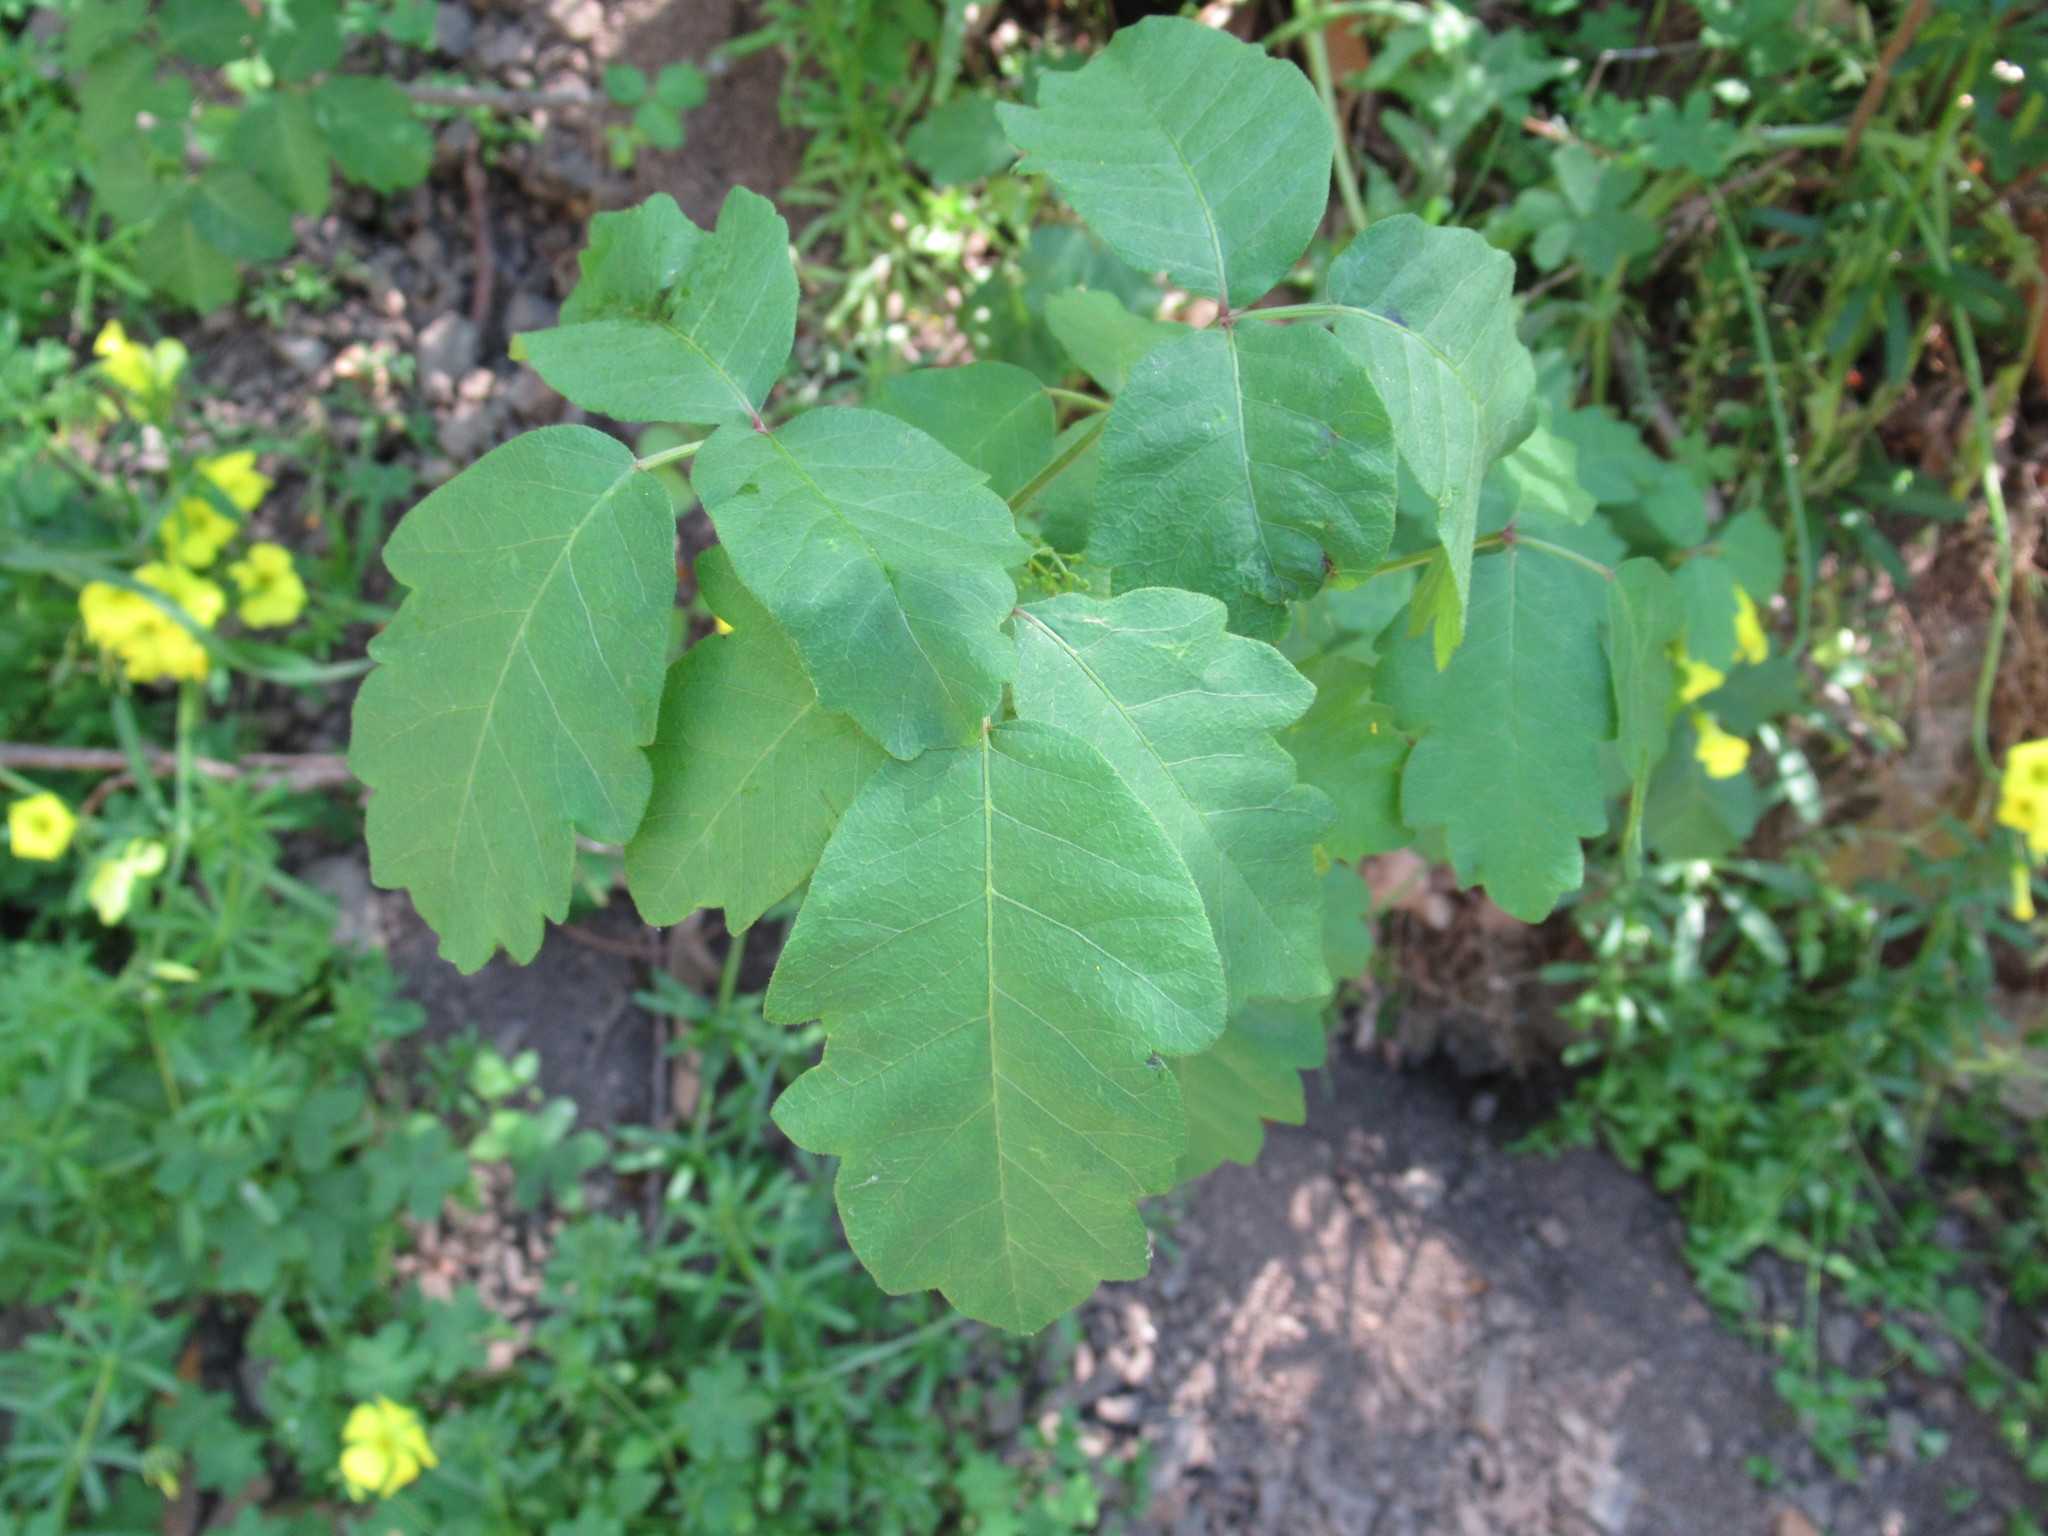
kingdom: Plantae
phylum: Tracheophyta
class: Magnoliopsida
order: Sapindales
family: Anacardiaceae
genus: Toxicodendron
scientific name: Toxicodendron diversilobum
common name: Pacific poison-oak
